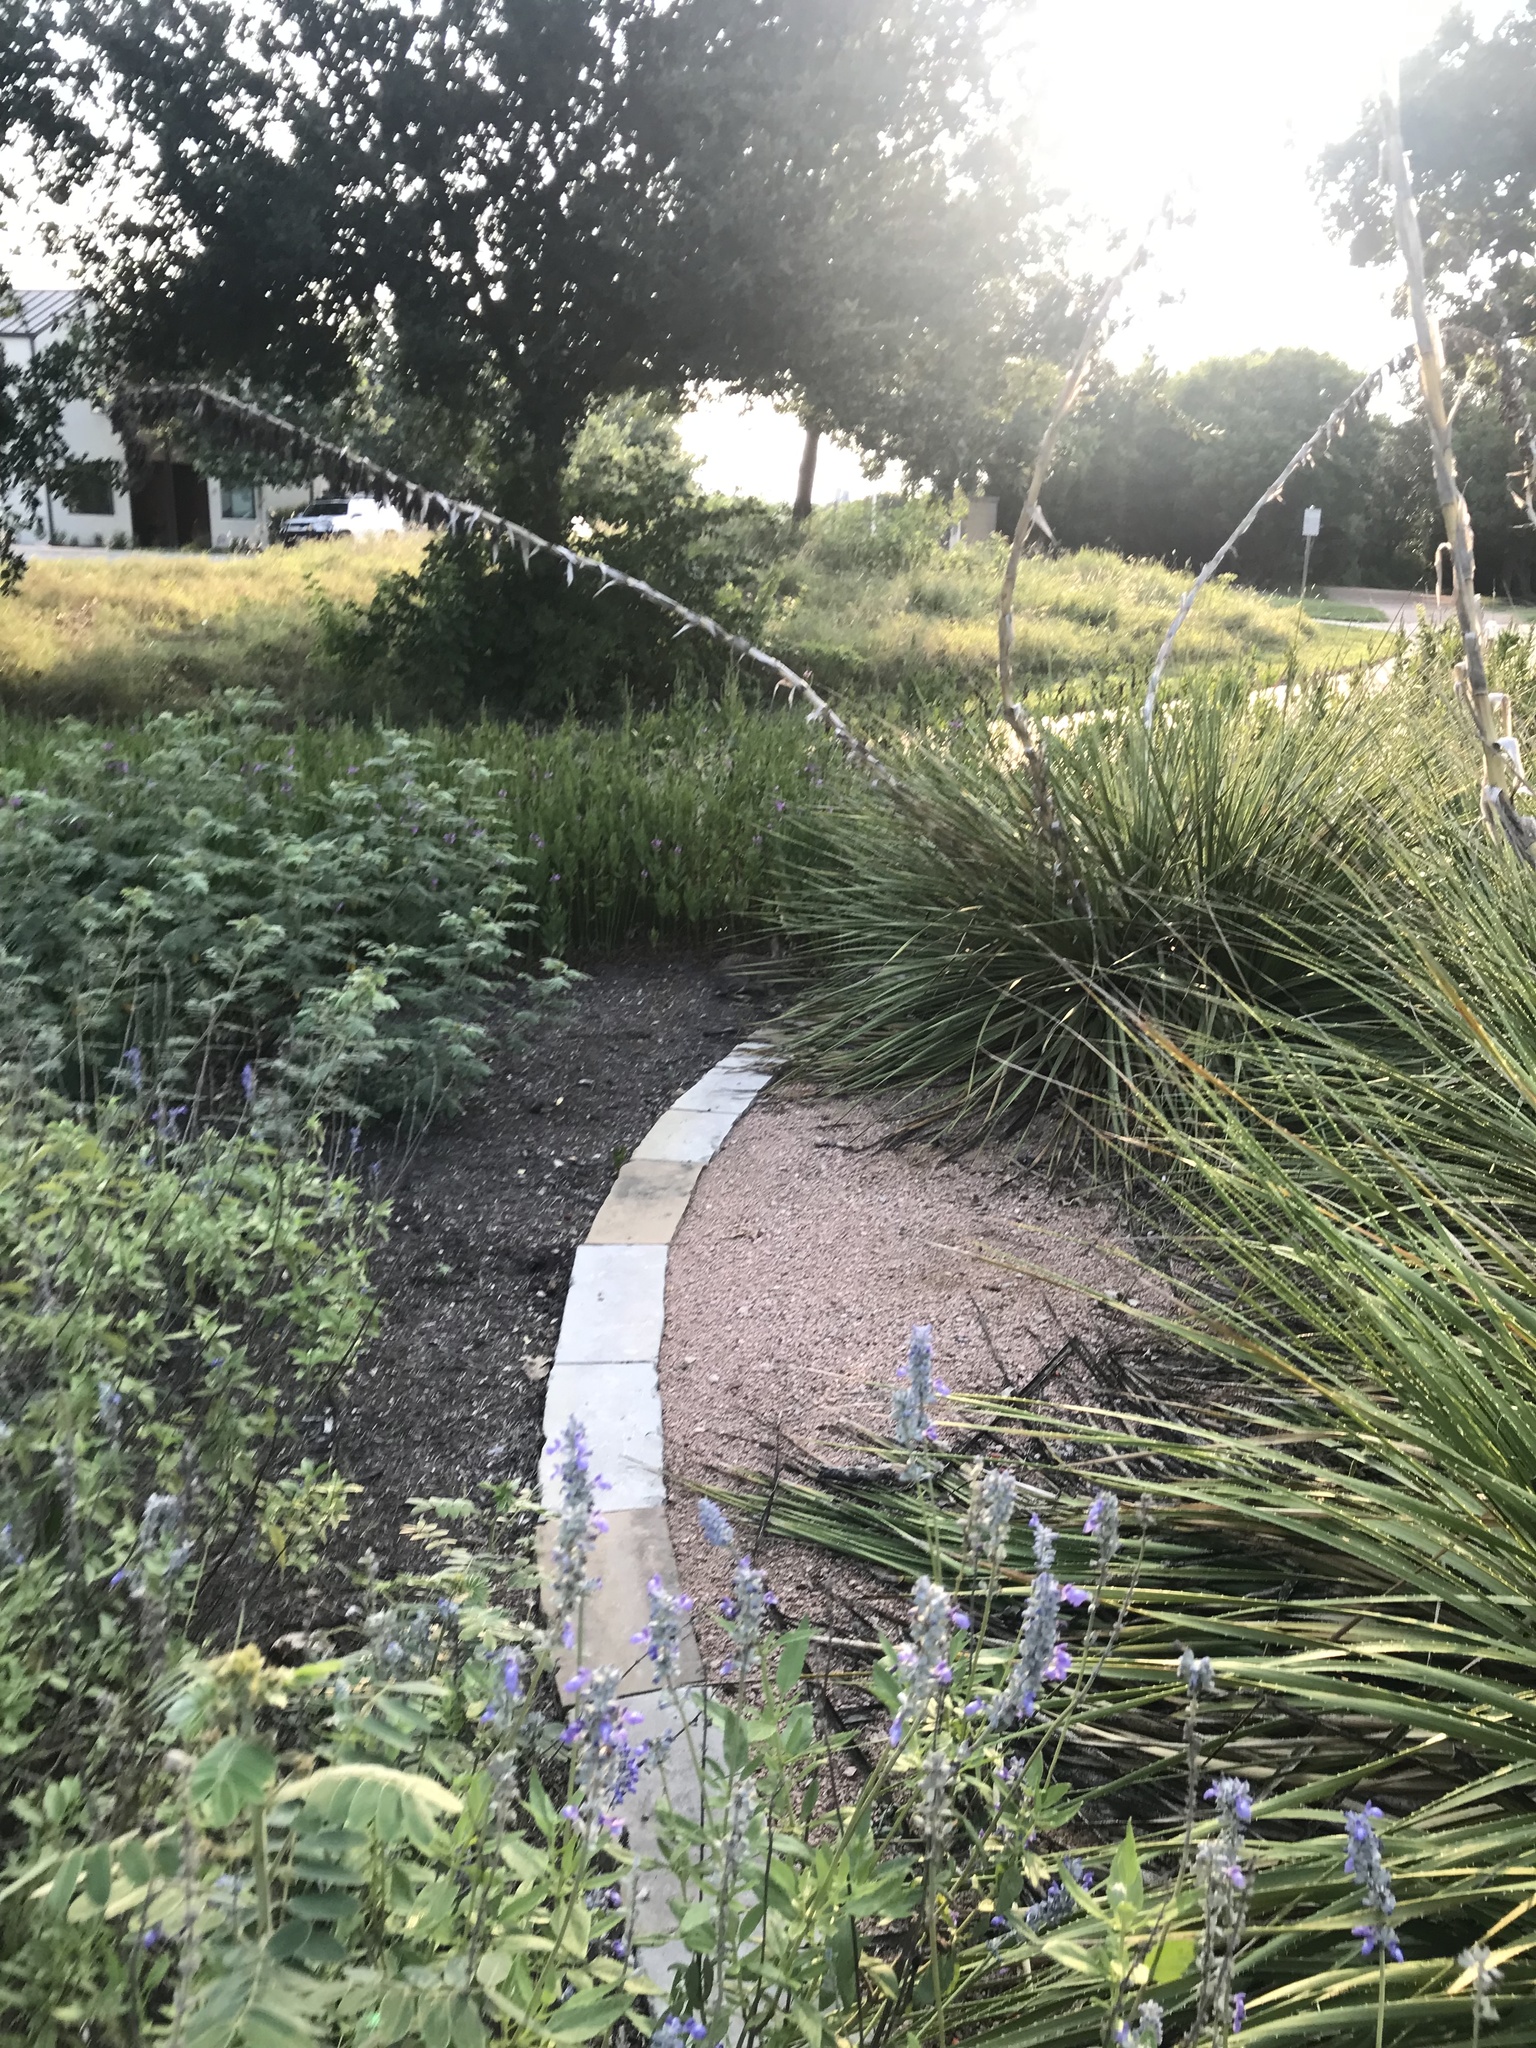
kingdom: Animalia
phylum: Chordata
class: Mammalia
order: Lagomorpha
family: Leporidae
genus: Sylvilagus
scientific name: Sylvilagus floridanus
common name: Eastern cottontail
